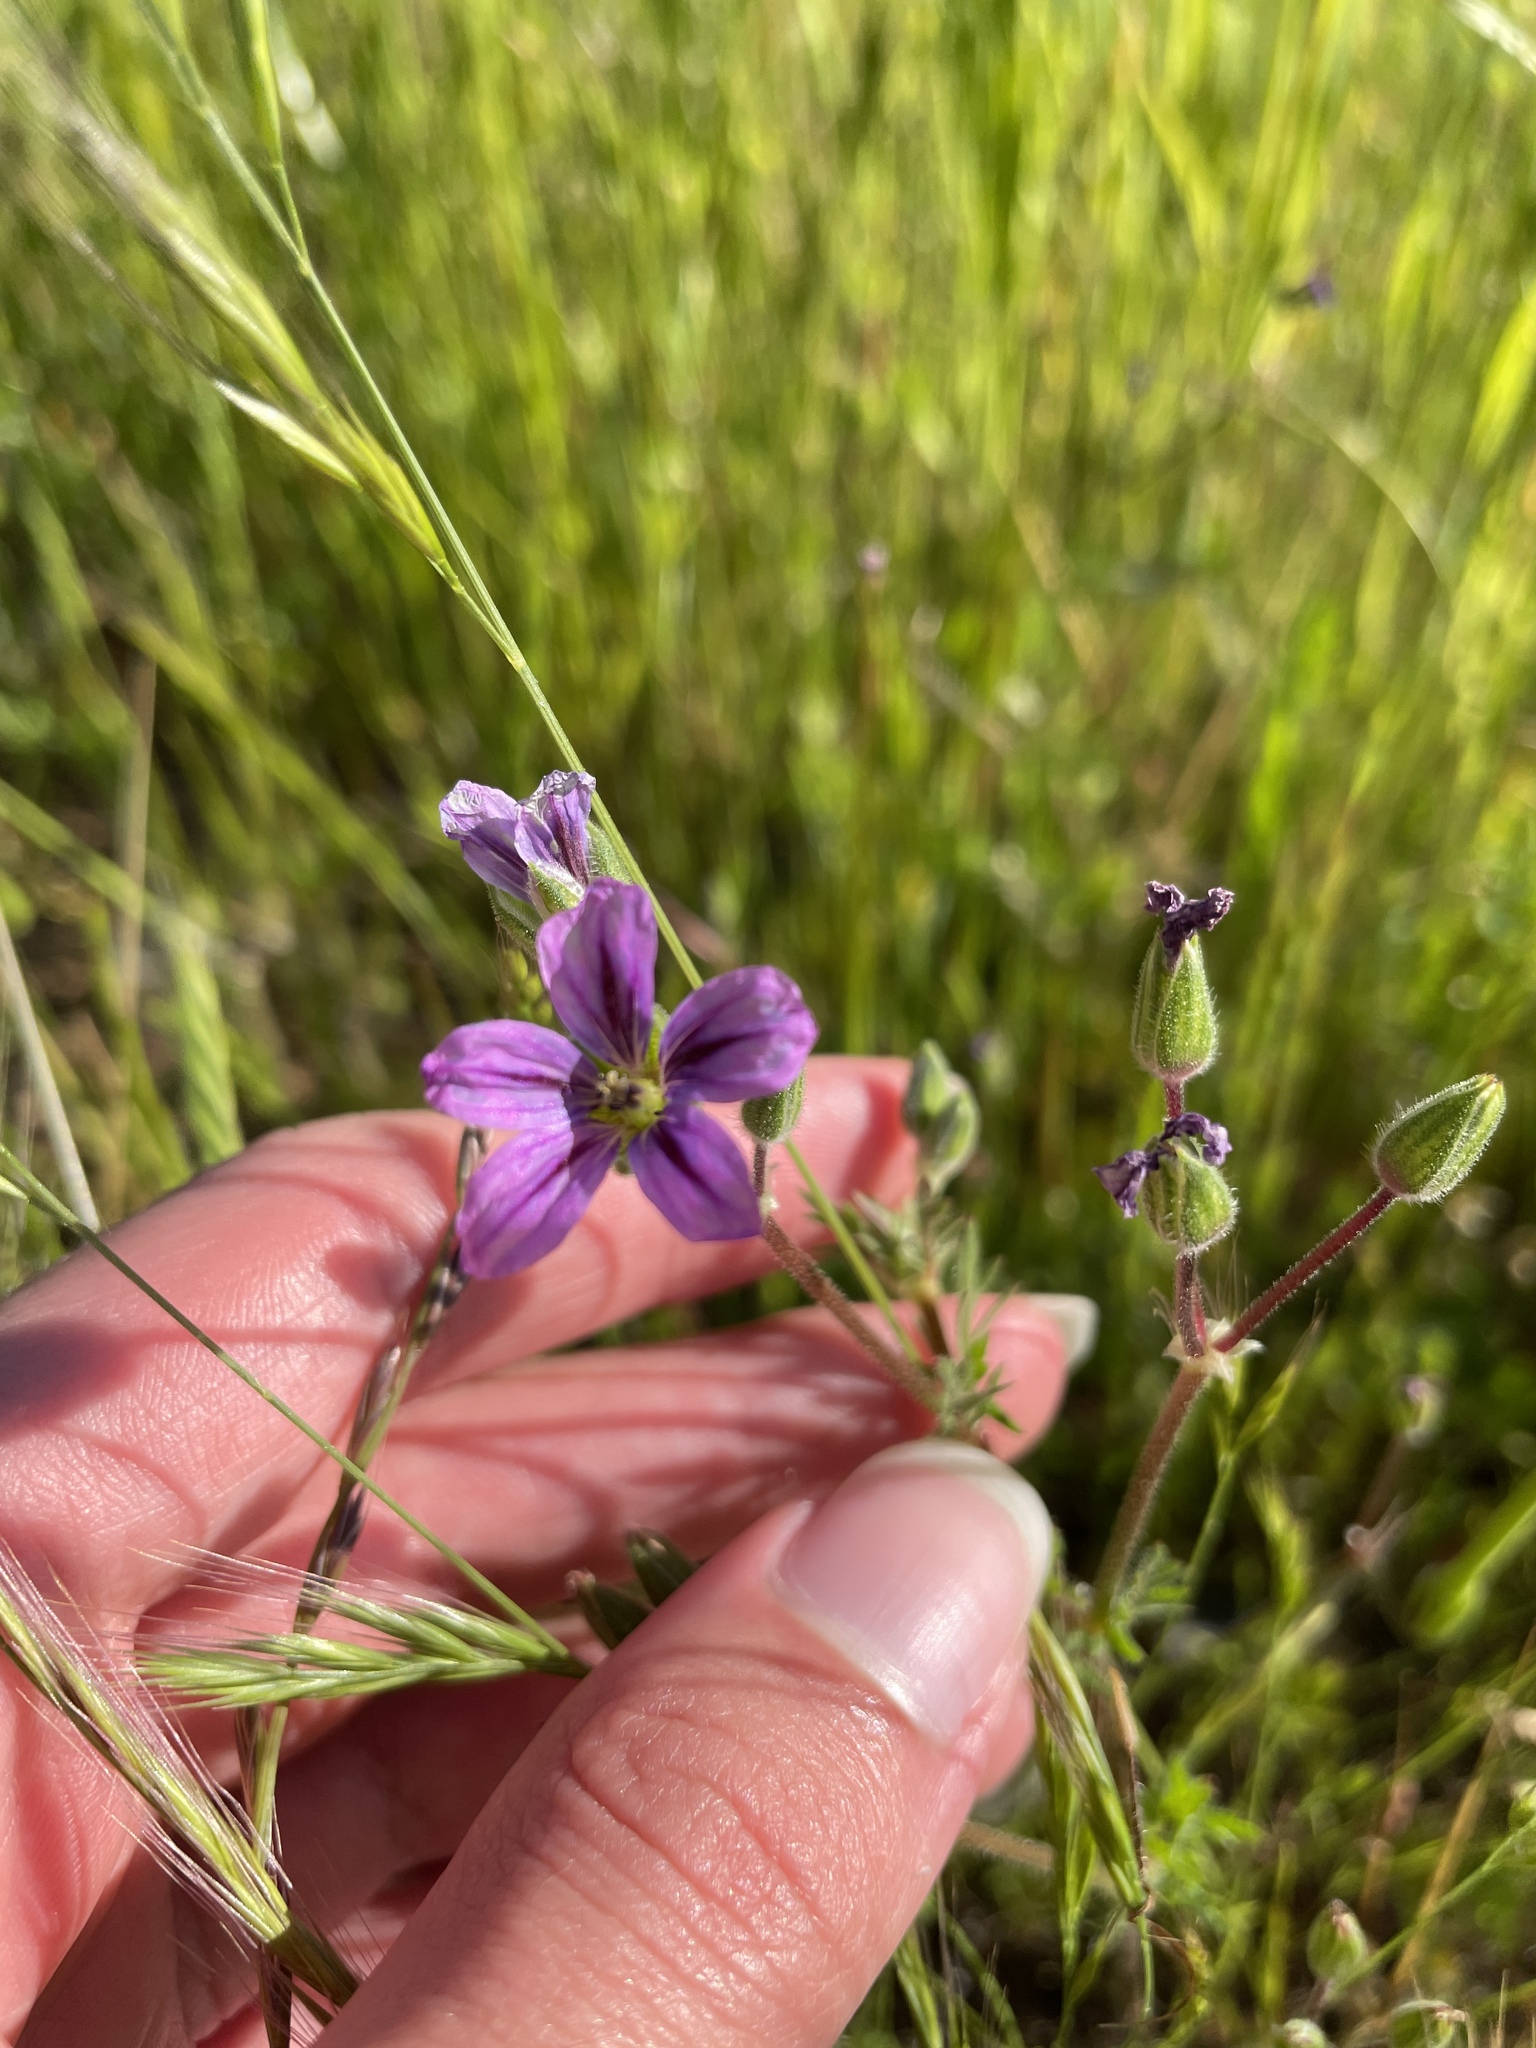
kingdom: Plantae
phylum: Tracheophyta
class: Magnoliopsida
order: Geraniales
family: Geraniaceae
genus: Erodium
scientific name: Erodium
